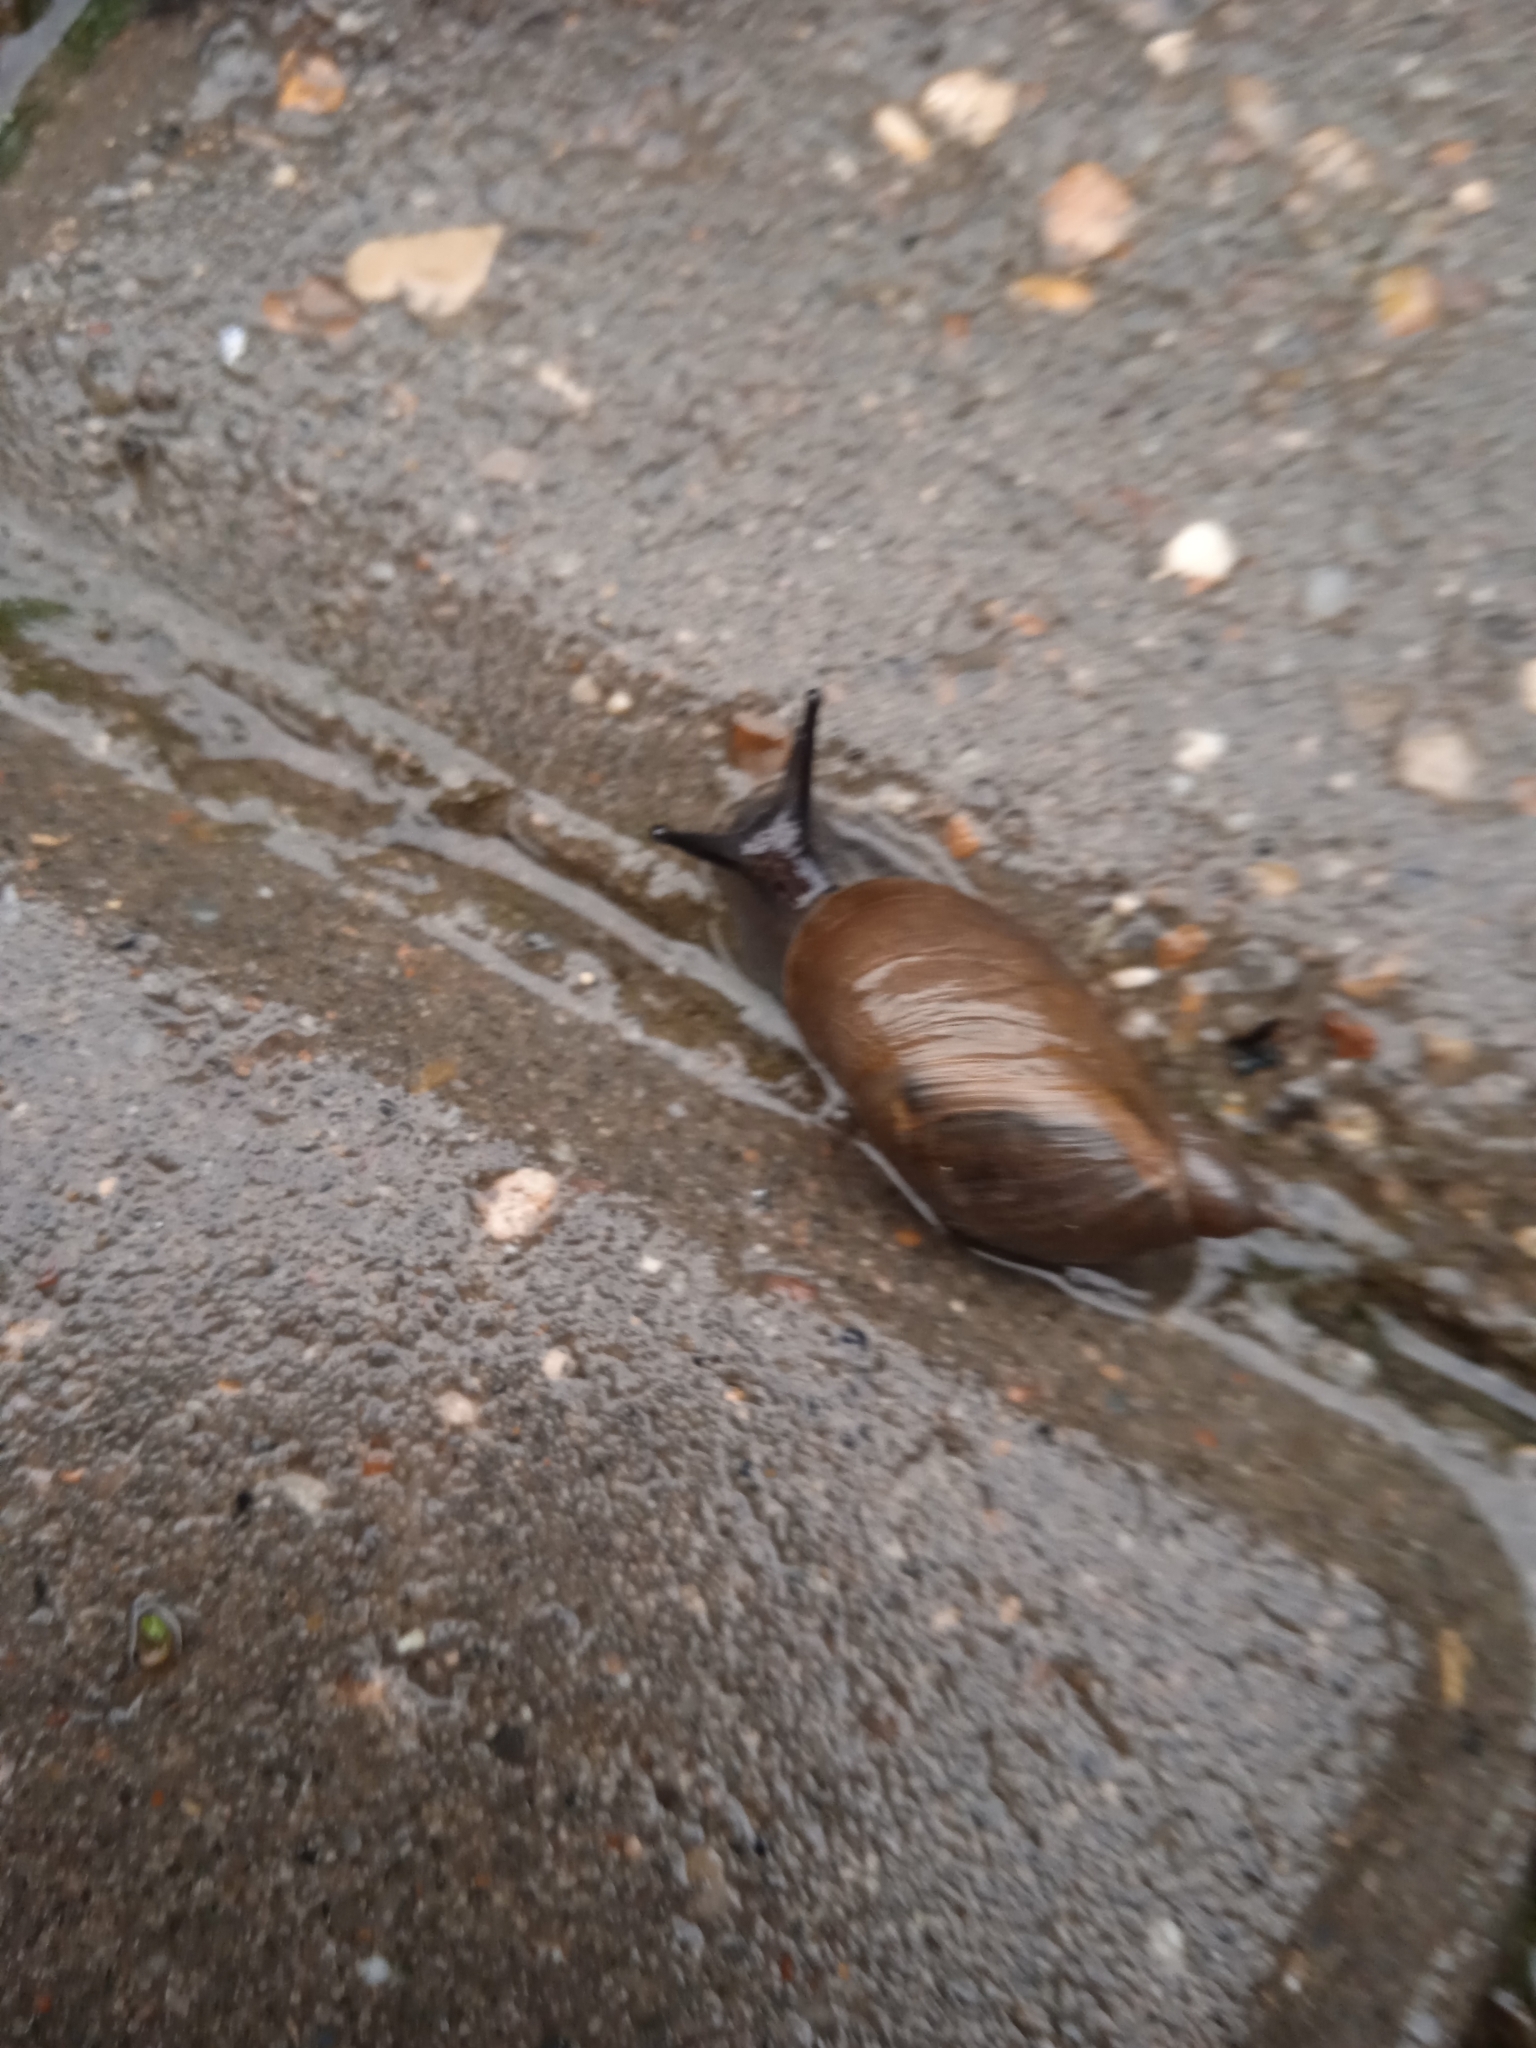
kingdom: Animalia
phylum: Mollusca
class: Gastropoda
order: Stylommatophora
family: Succineidae
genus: Succinea
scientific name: Succinea putris
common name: European ambersnail
